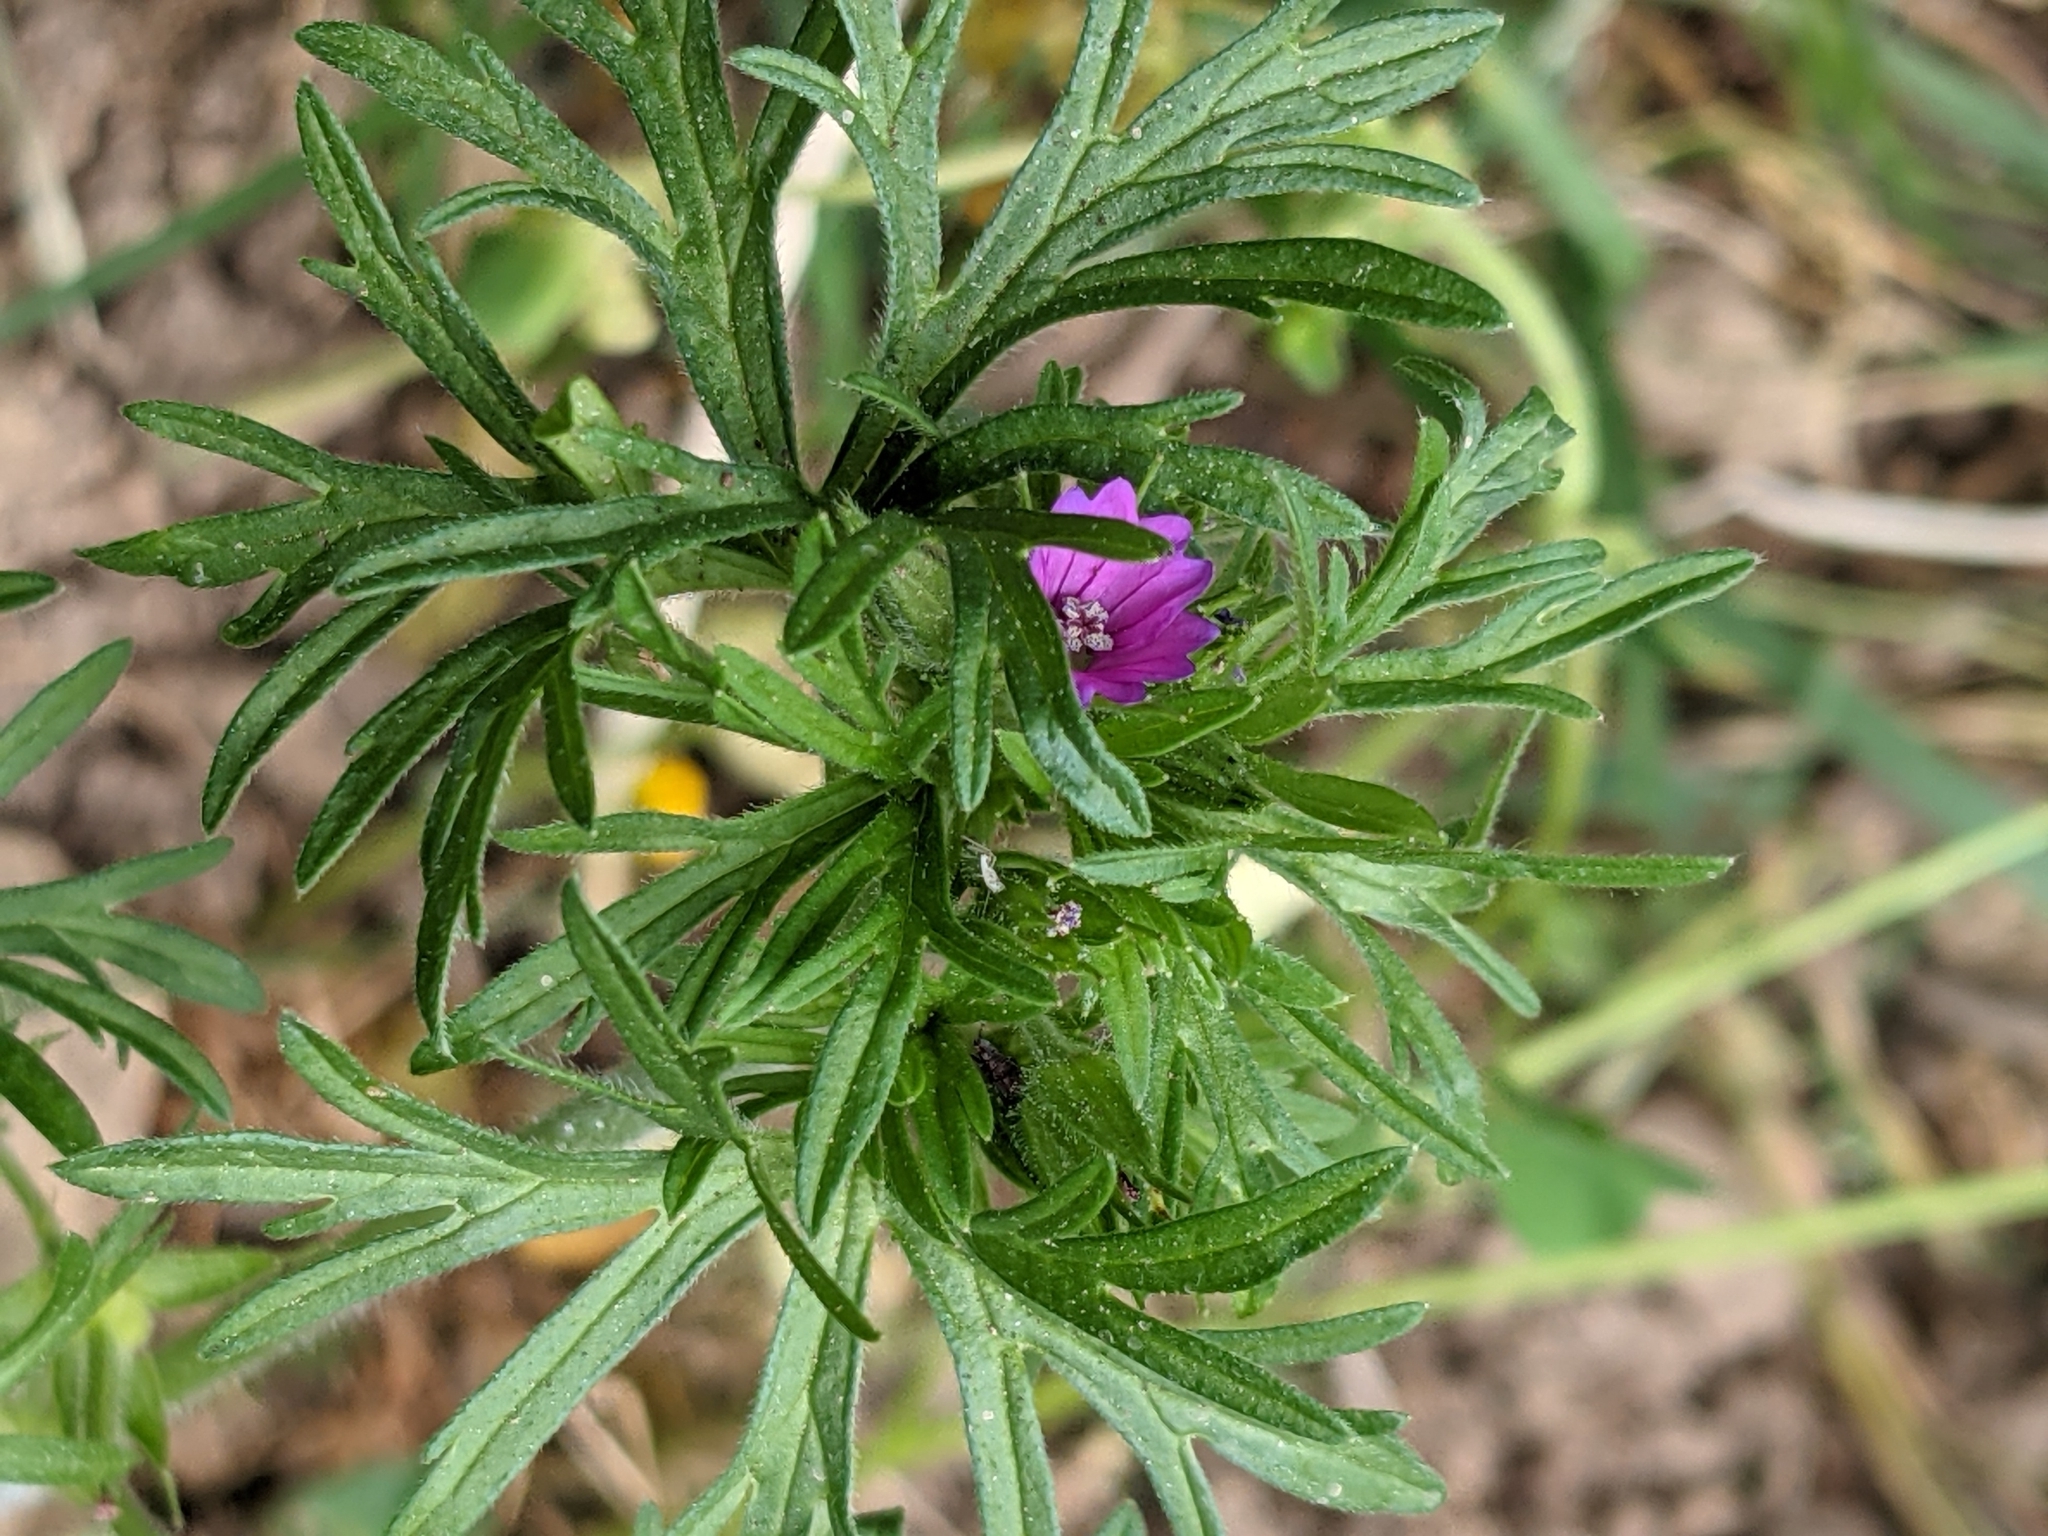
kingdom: Plantae
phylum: Tracheophyta
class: Magnoliopsida
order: Geraniales
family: Geraniaceae
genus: Geranium
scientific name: Geranium dissectum
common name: Cut-leaved crane's-bill
